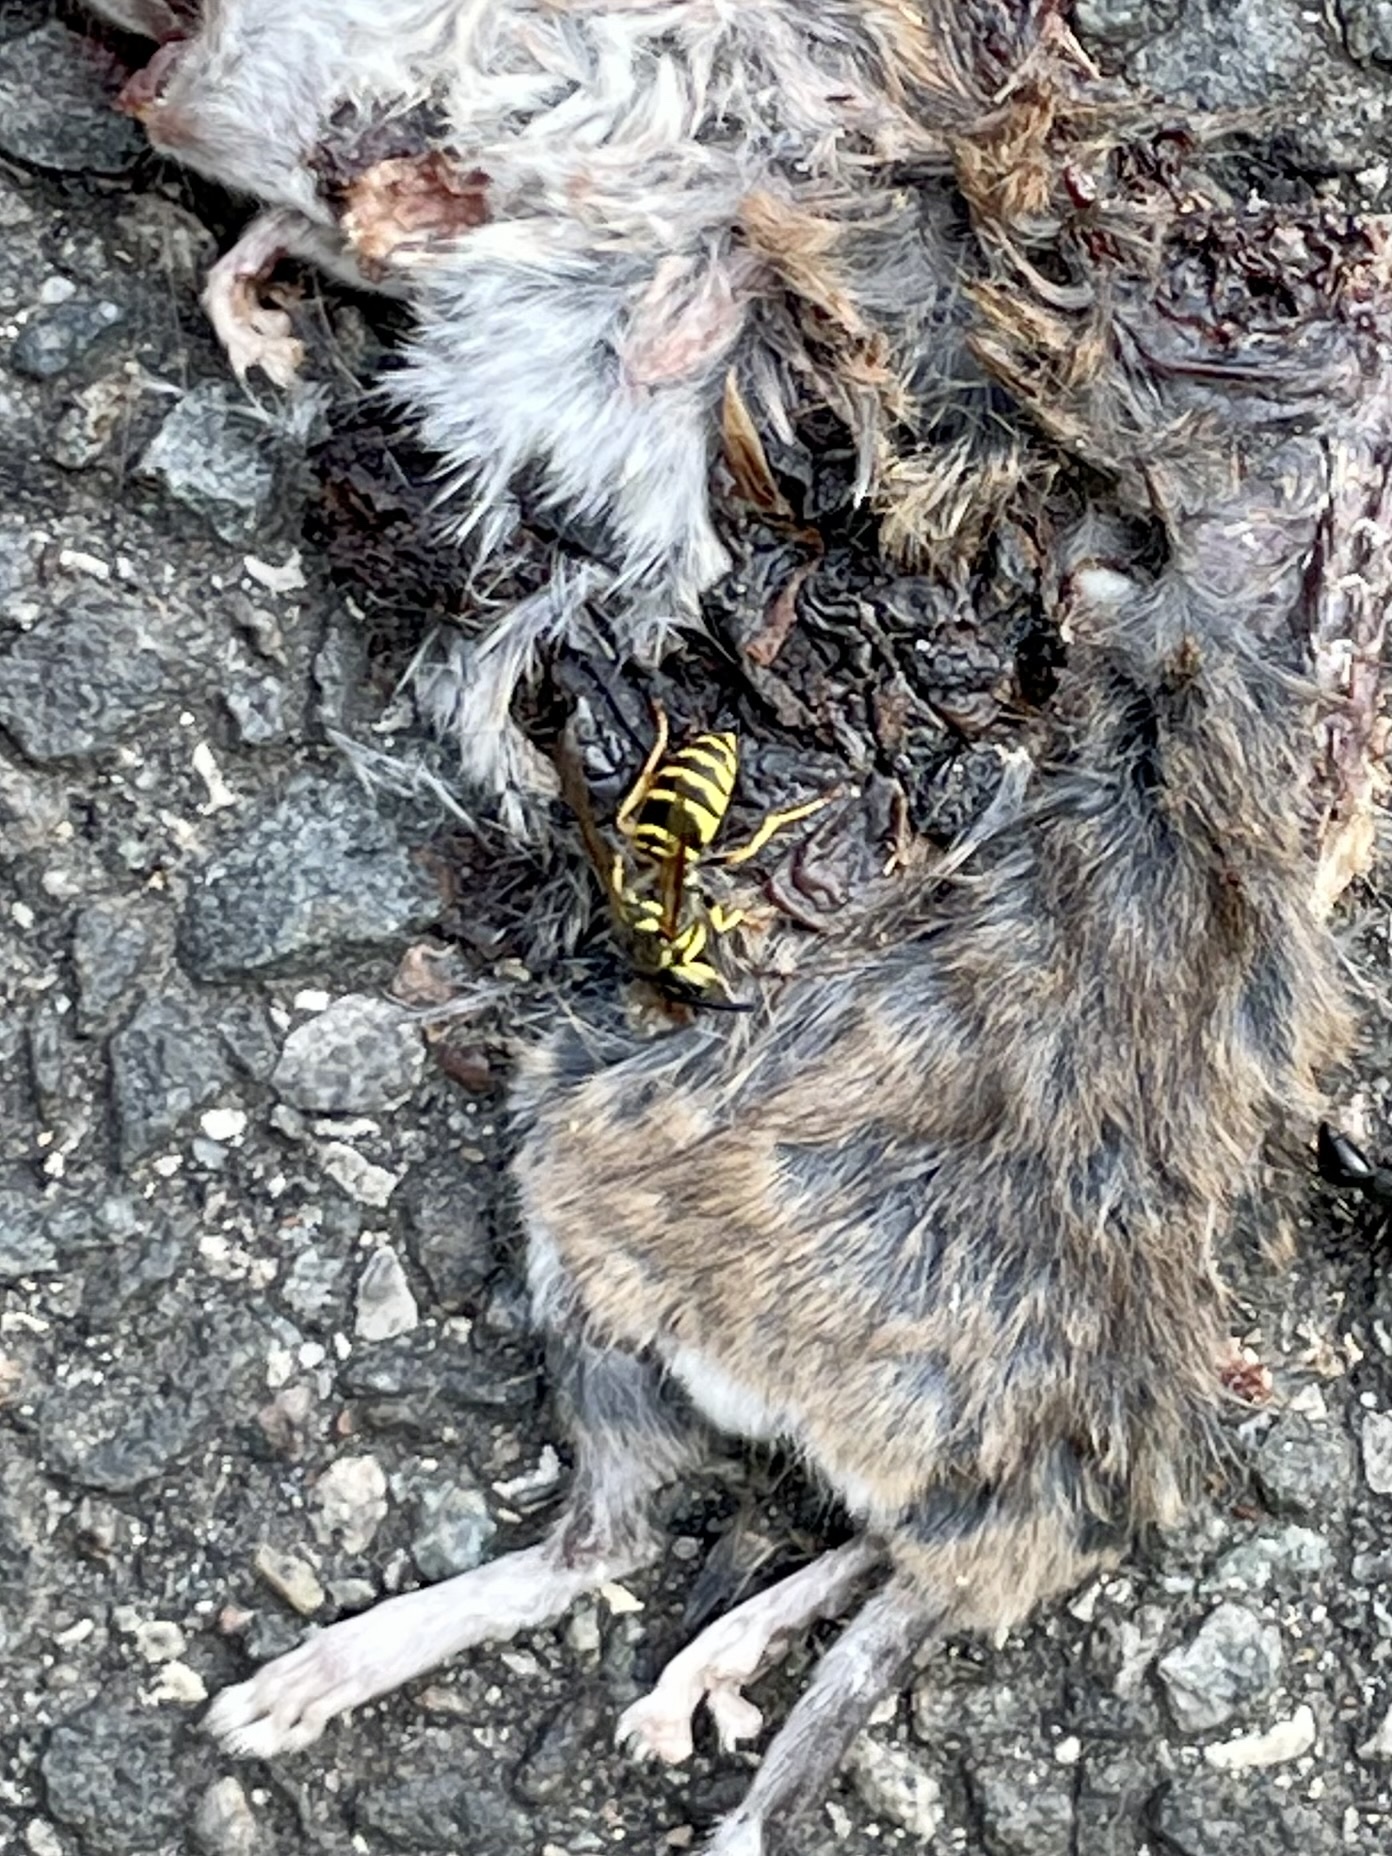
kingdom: Animalia
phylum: Arthropoda
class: Insecta
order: Hymenoptera
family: Vespidae
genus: Vespula
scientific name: Vespula maculifrons
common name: Eastern yellowjacket
